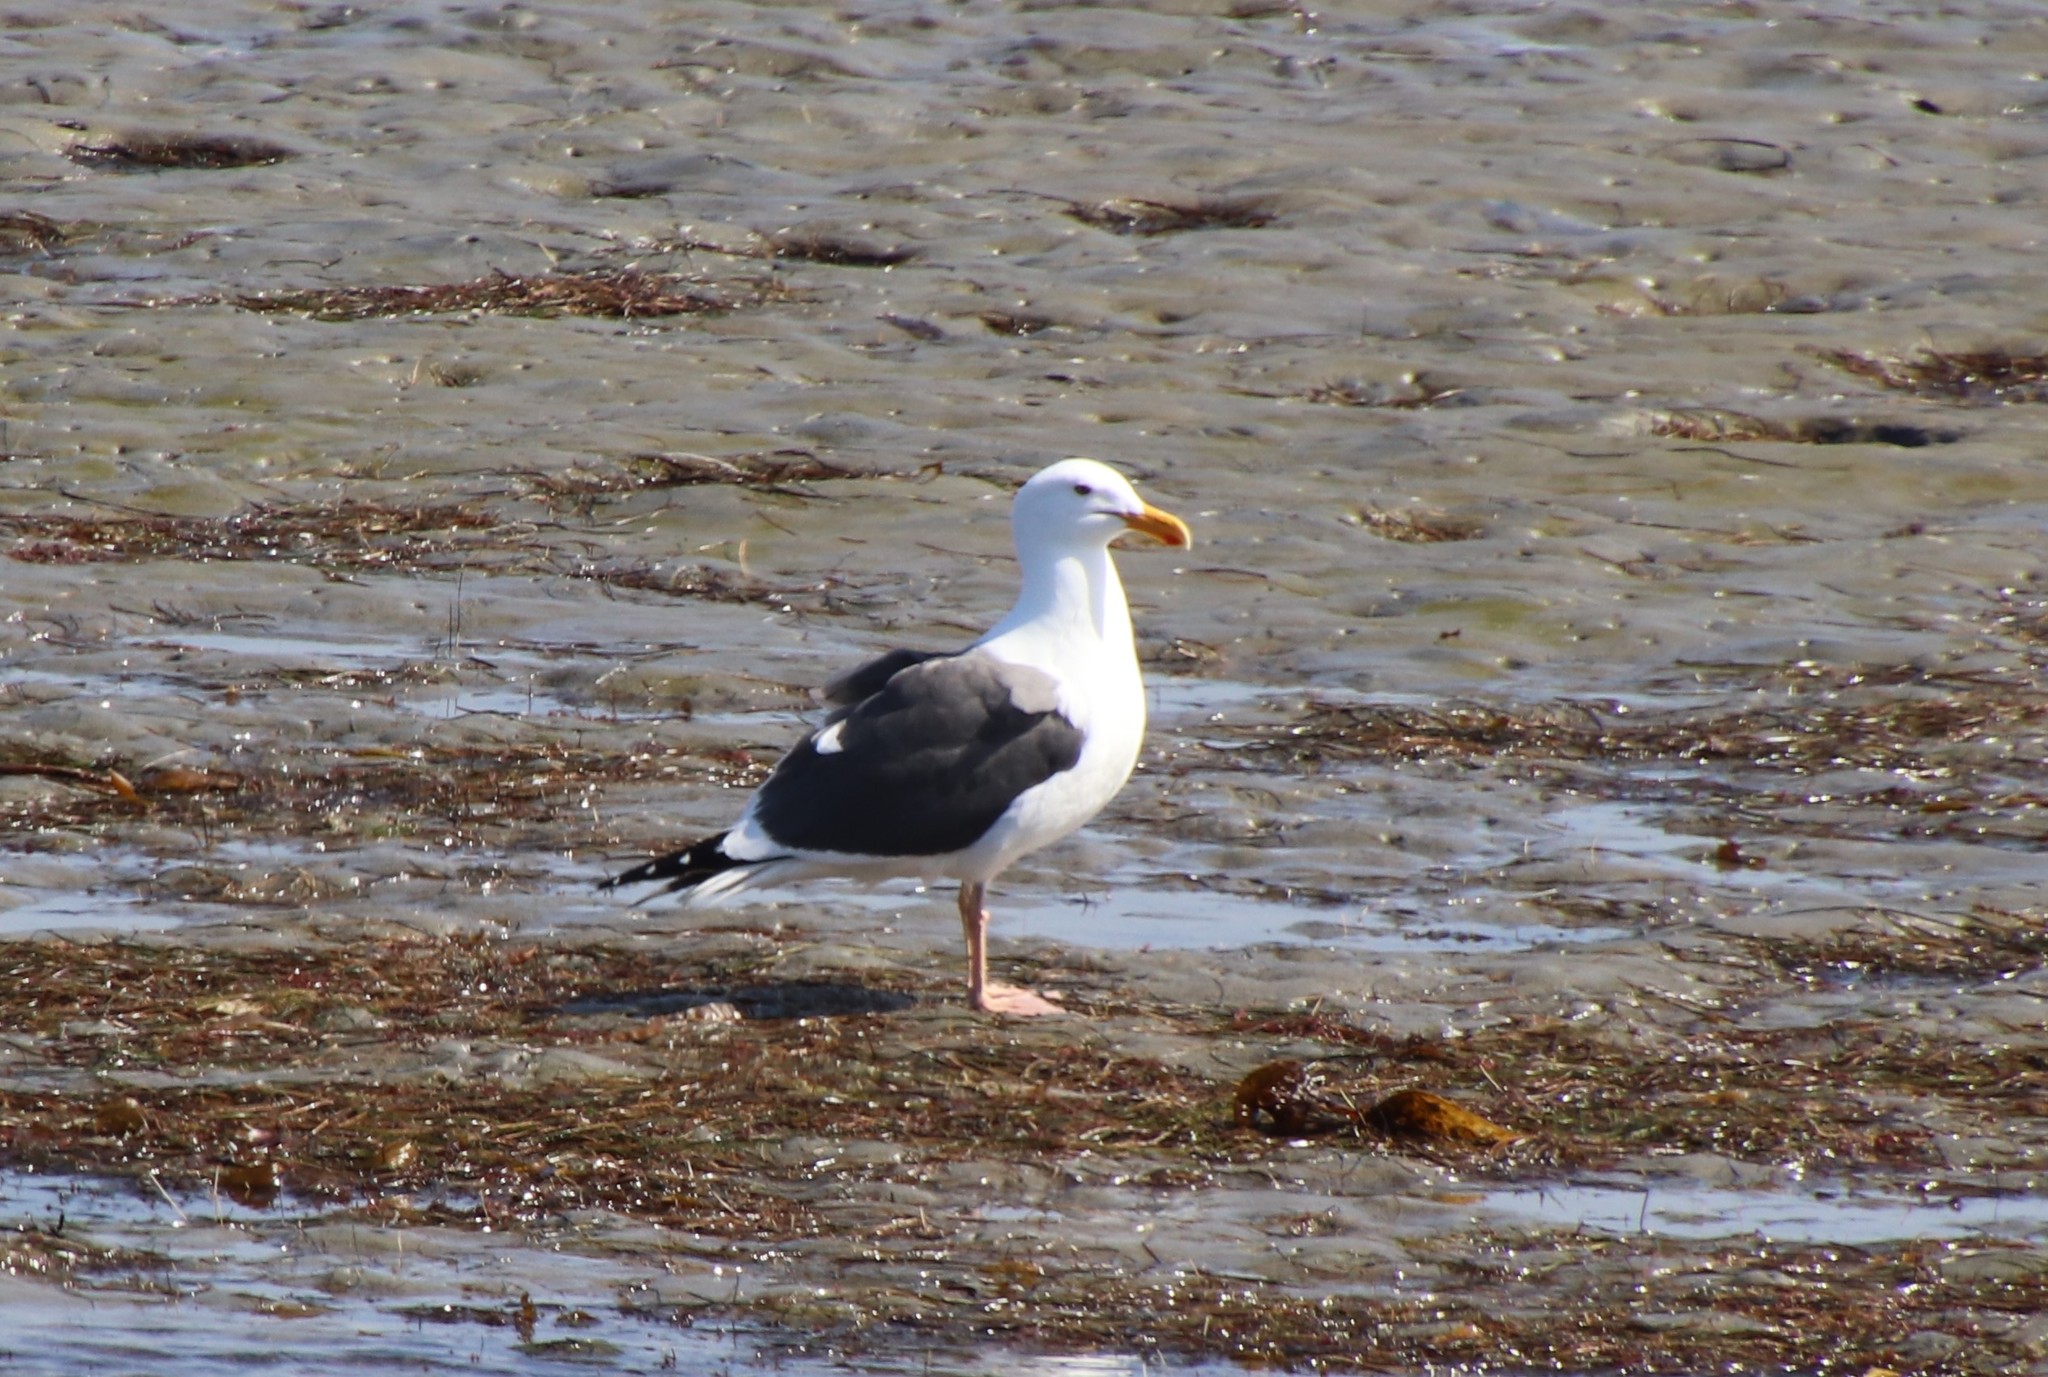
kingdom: Animalia
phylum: Chordata
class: Aves
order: Charadriiformes
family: Laridae
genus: Larus
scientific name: Larus occidentalis
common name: Western gull
